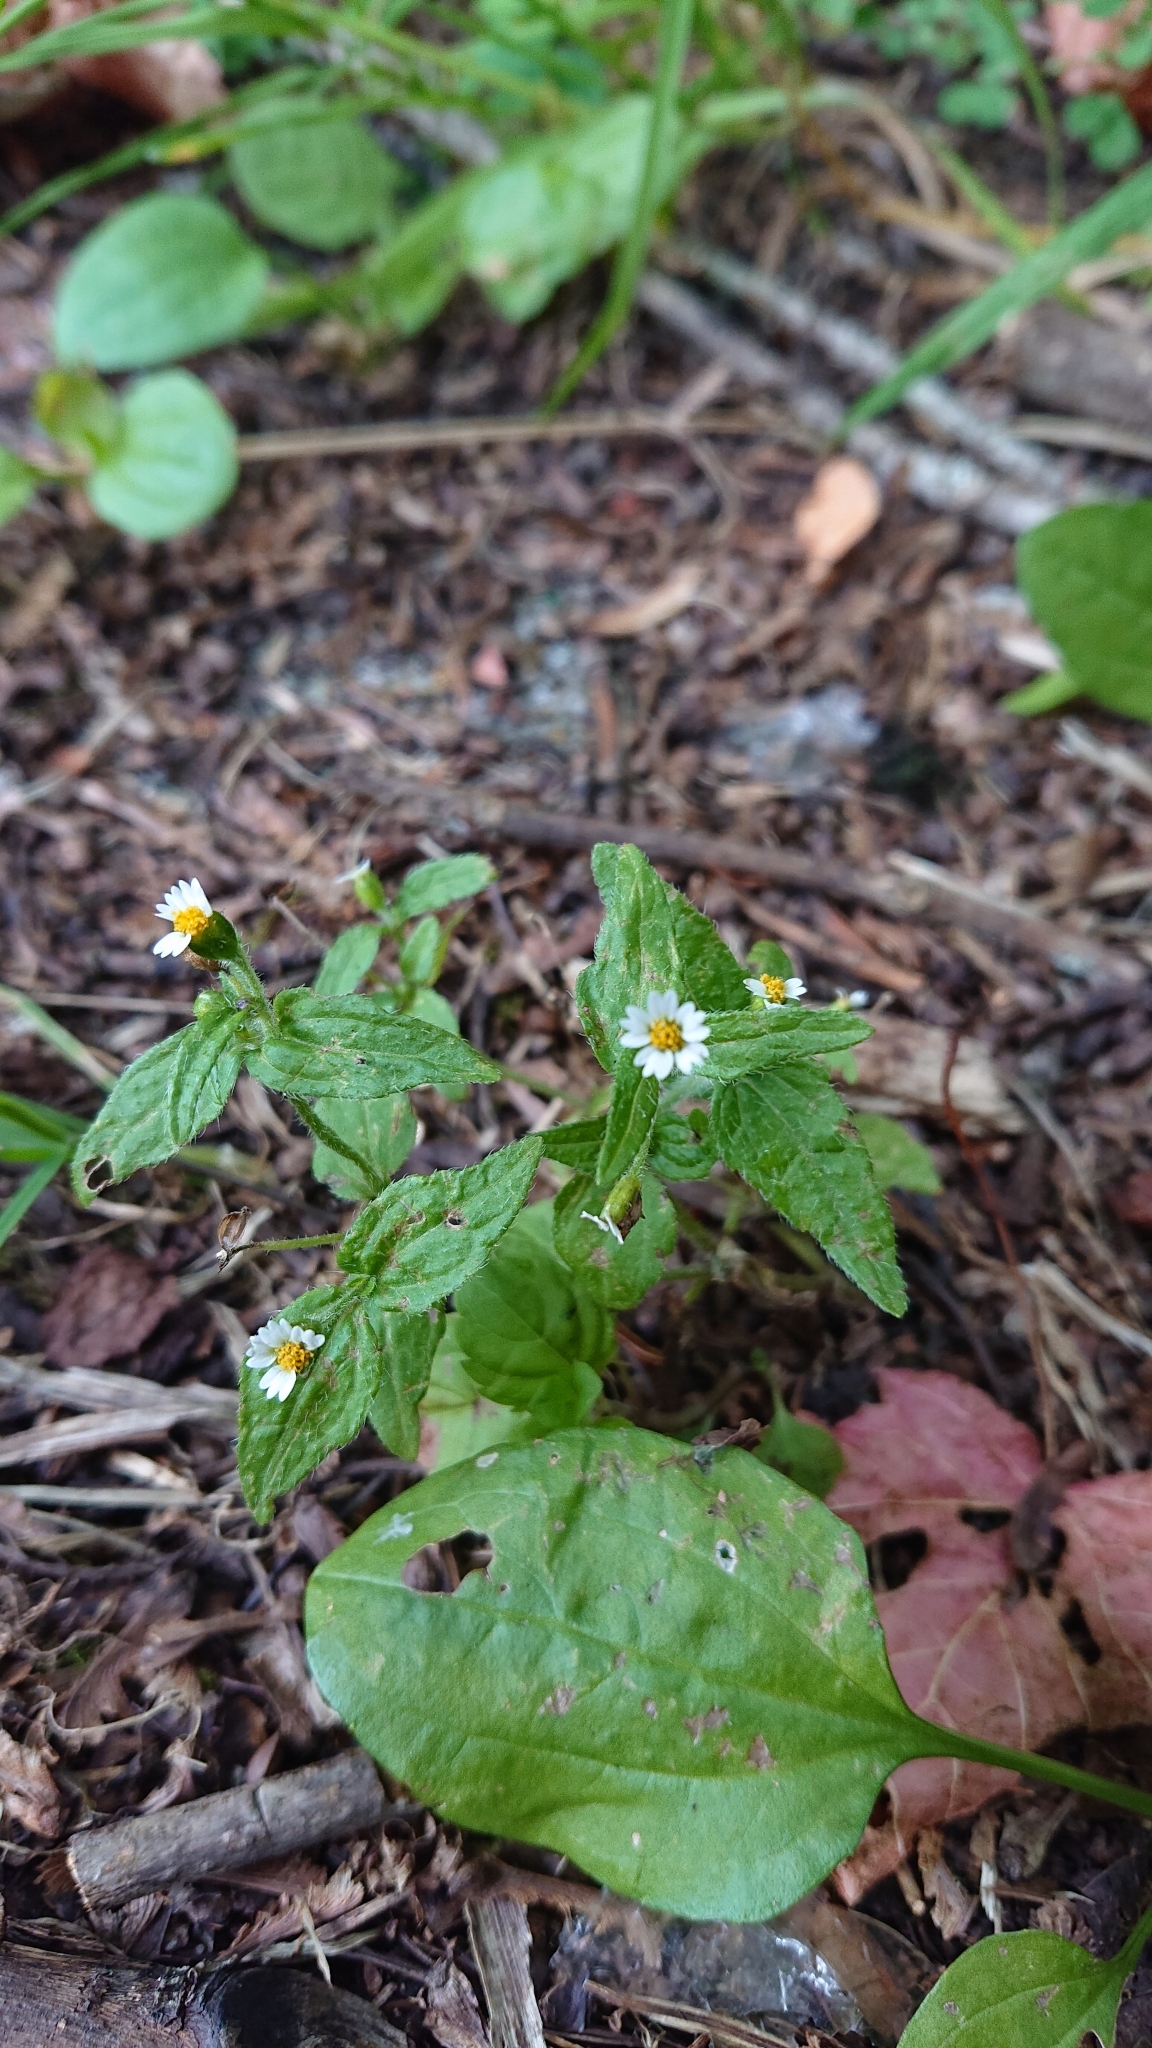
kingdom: Plantae
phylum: Tracheophyta
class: Magnoliopsida
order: Asterales
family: Asteraceae
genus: Galinsoga
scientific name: Galinsoga quadriradiata
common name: Shaggy soldier
